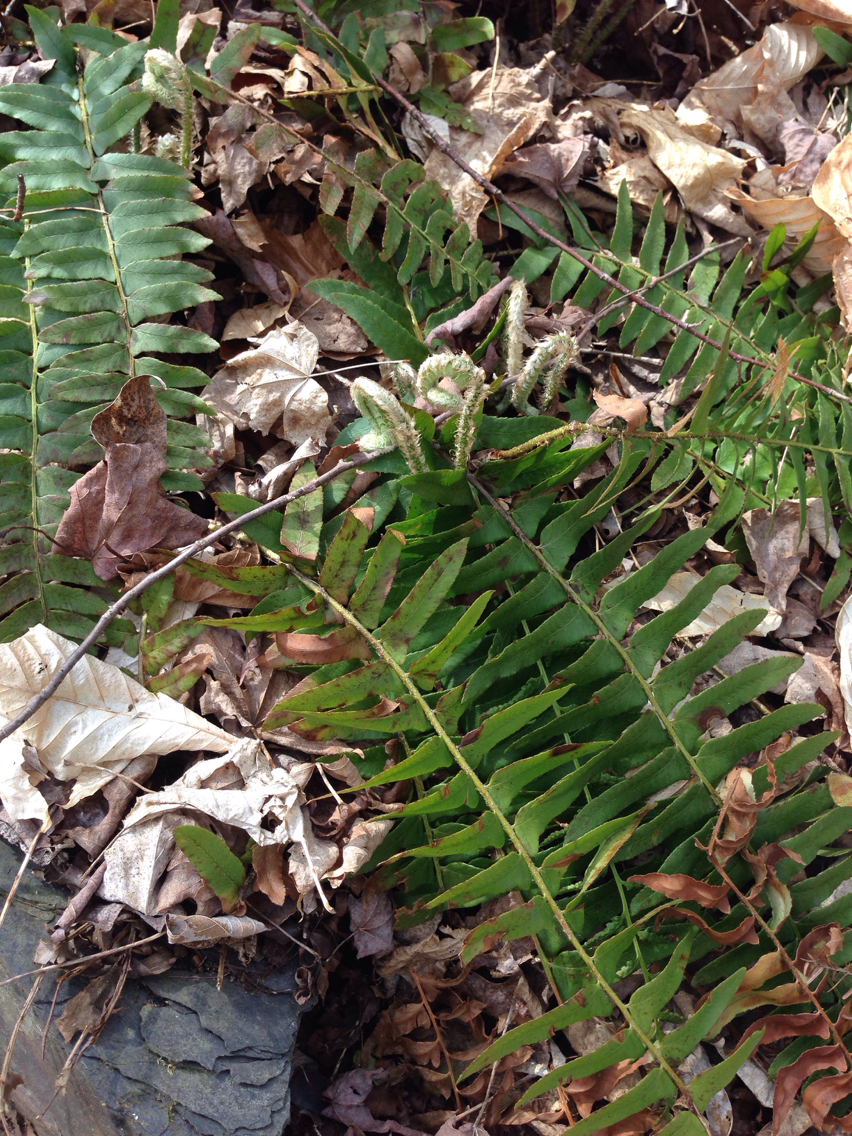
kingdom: Plantae
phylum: Tracheophyta
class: Polypodiopsida
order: Polypodiales
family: Dryopteridaceae
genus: Polystichum
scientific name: Polystichum acrostichoides
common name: Christmas fern
